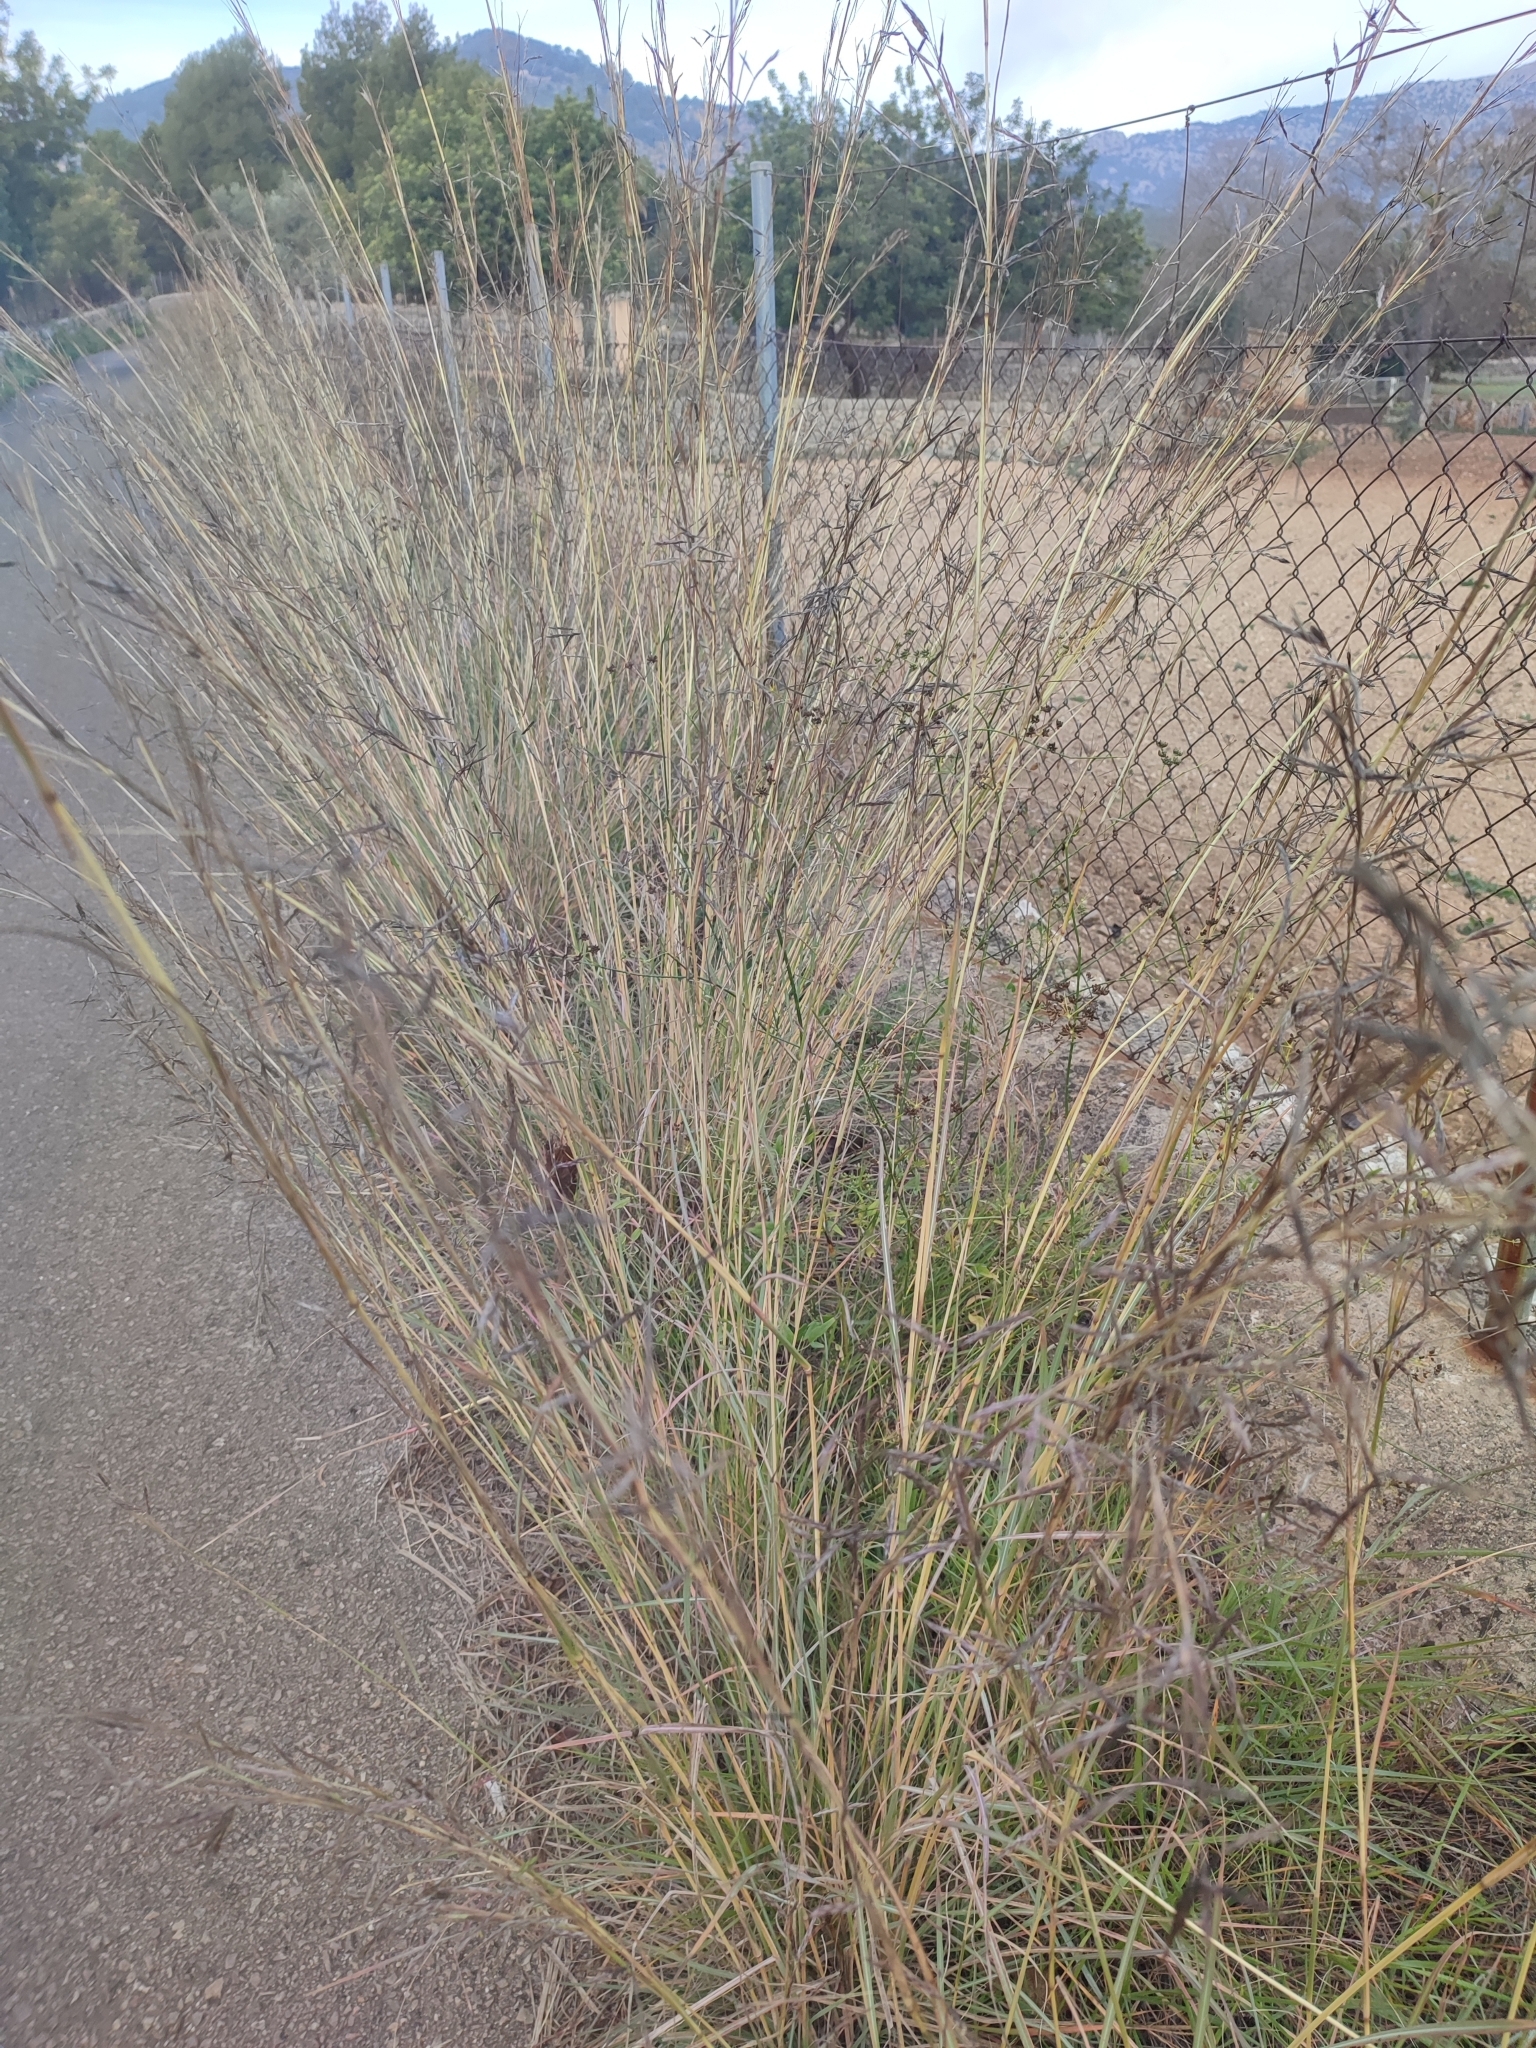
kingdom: Plantae
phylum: Tracheophyta
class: Liliopsida
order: Poales
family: Poaceae
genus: Hyparrhenia
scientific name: Hyparrhenia hirta
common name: Thatching grass
